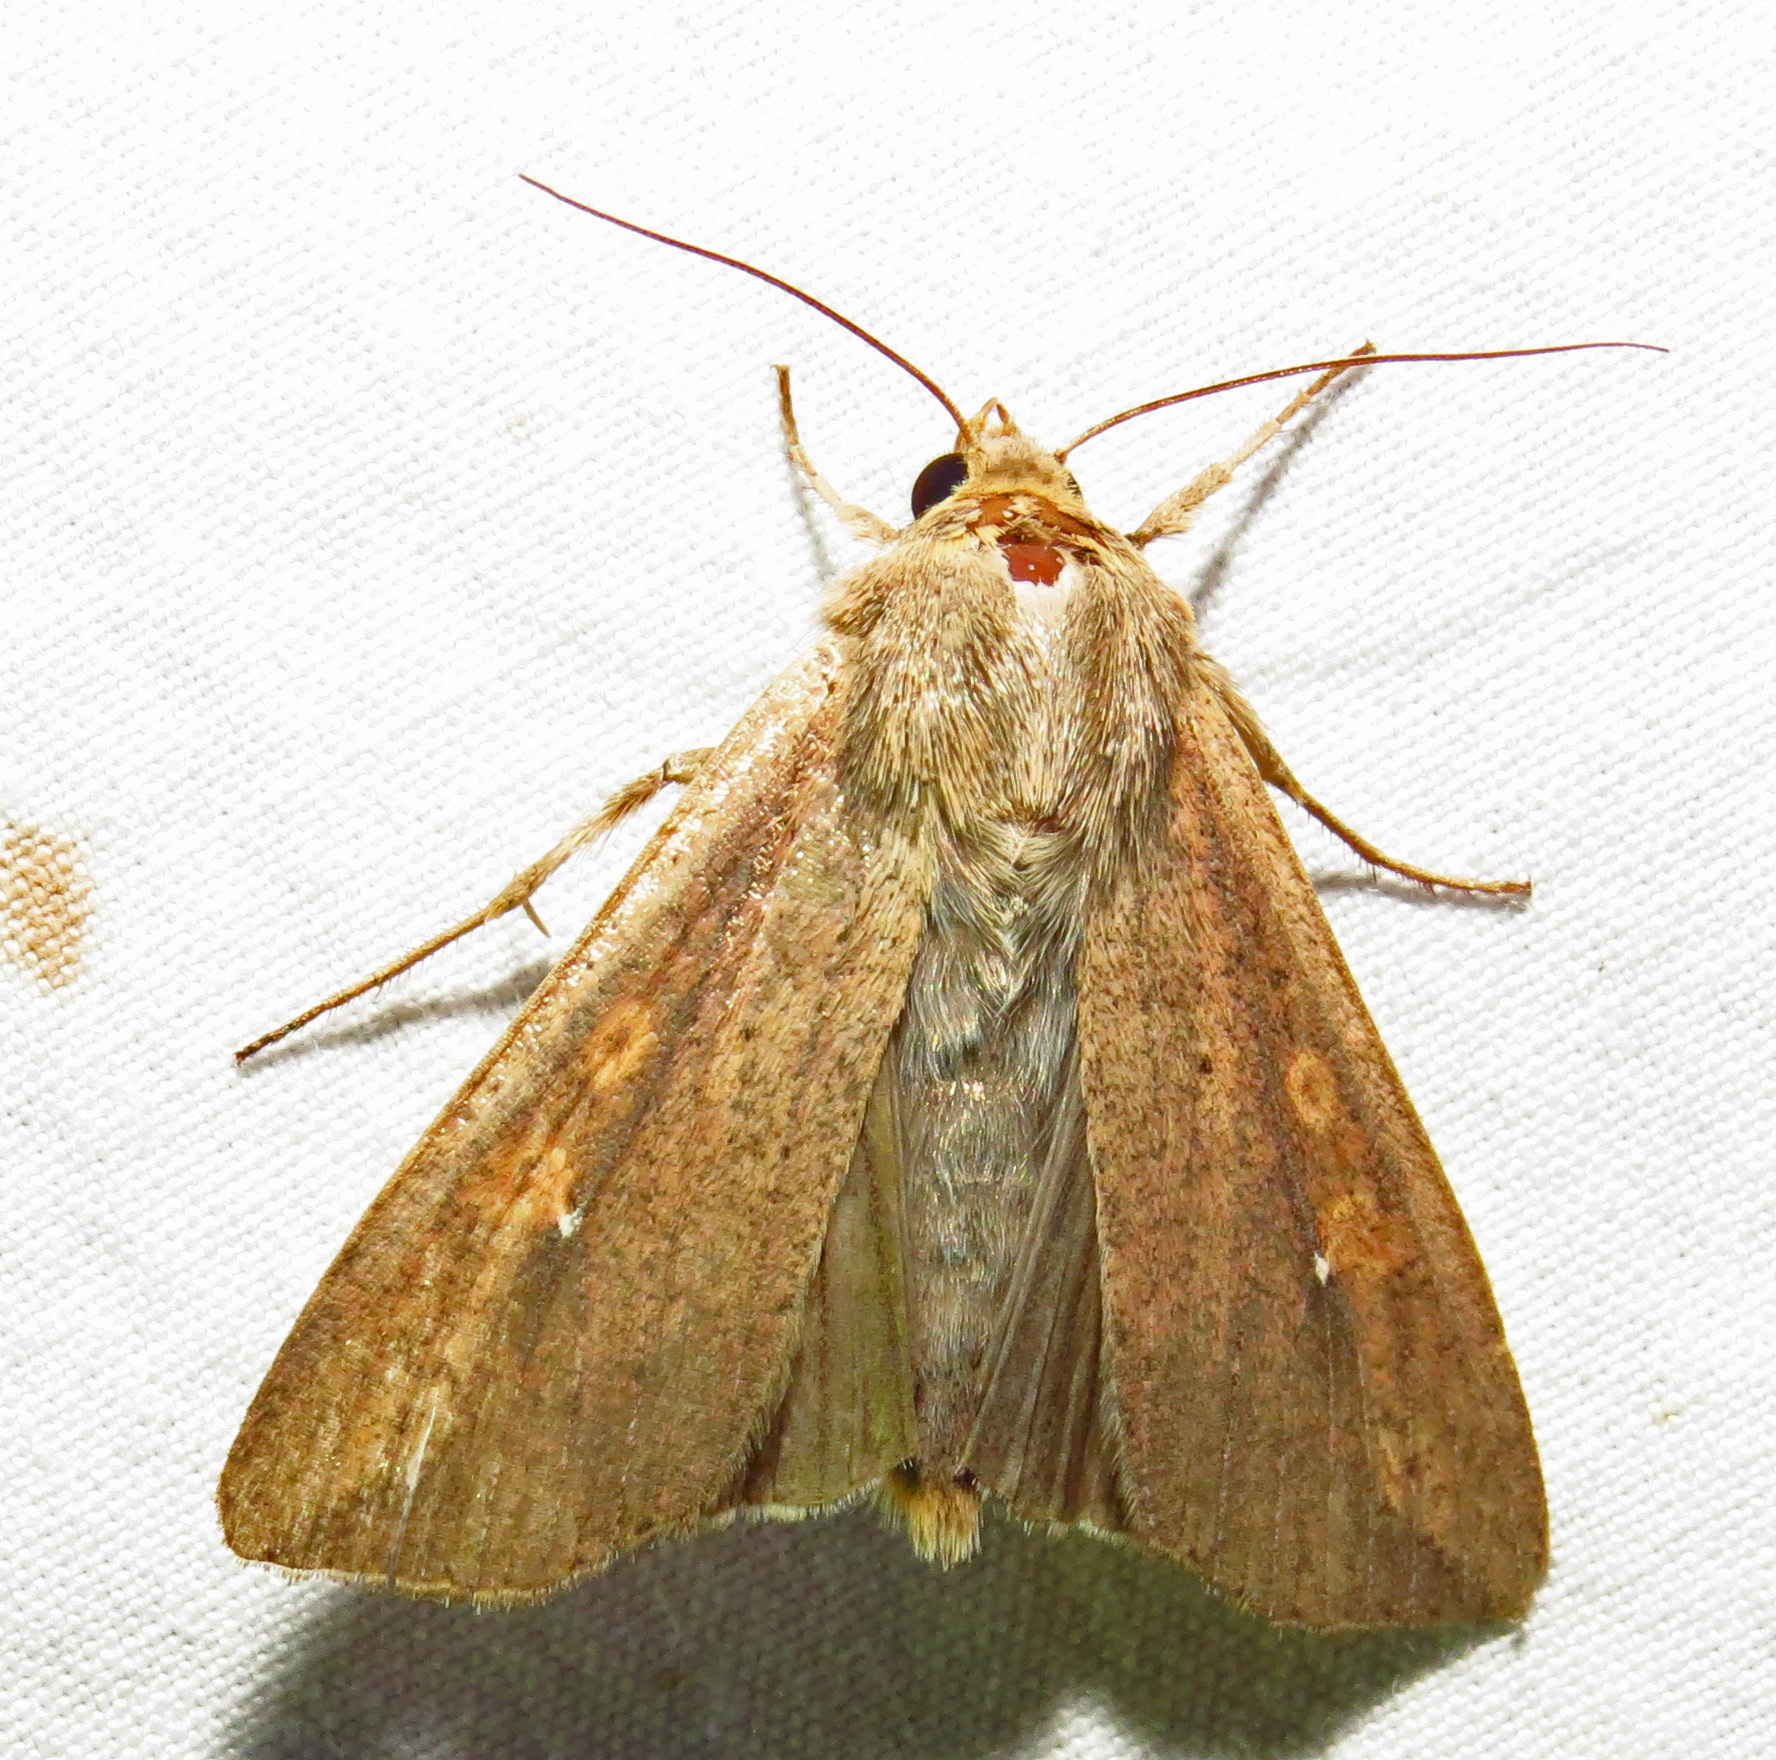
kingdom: Animalia
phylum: Arthropoda
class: Insecta
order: Lepidoptera
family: Noctuidae
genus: Mythimna
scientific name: Mythimna unipuncta
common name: White-speck
